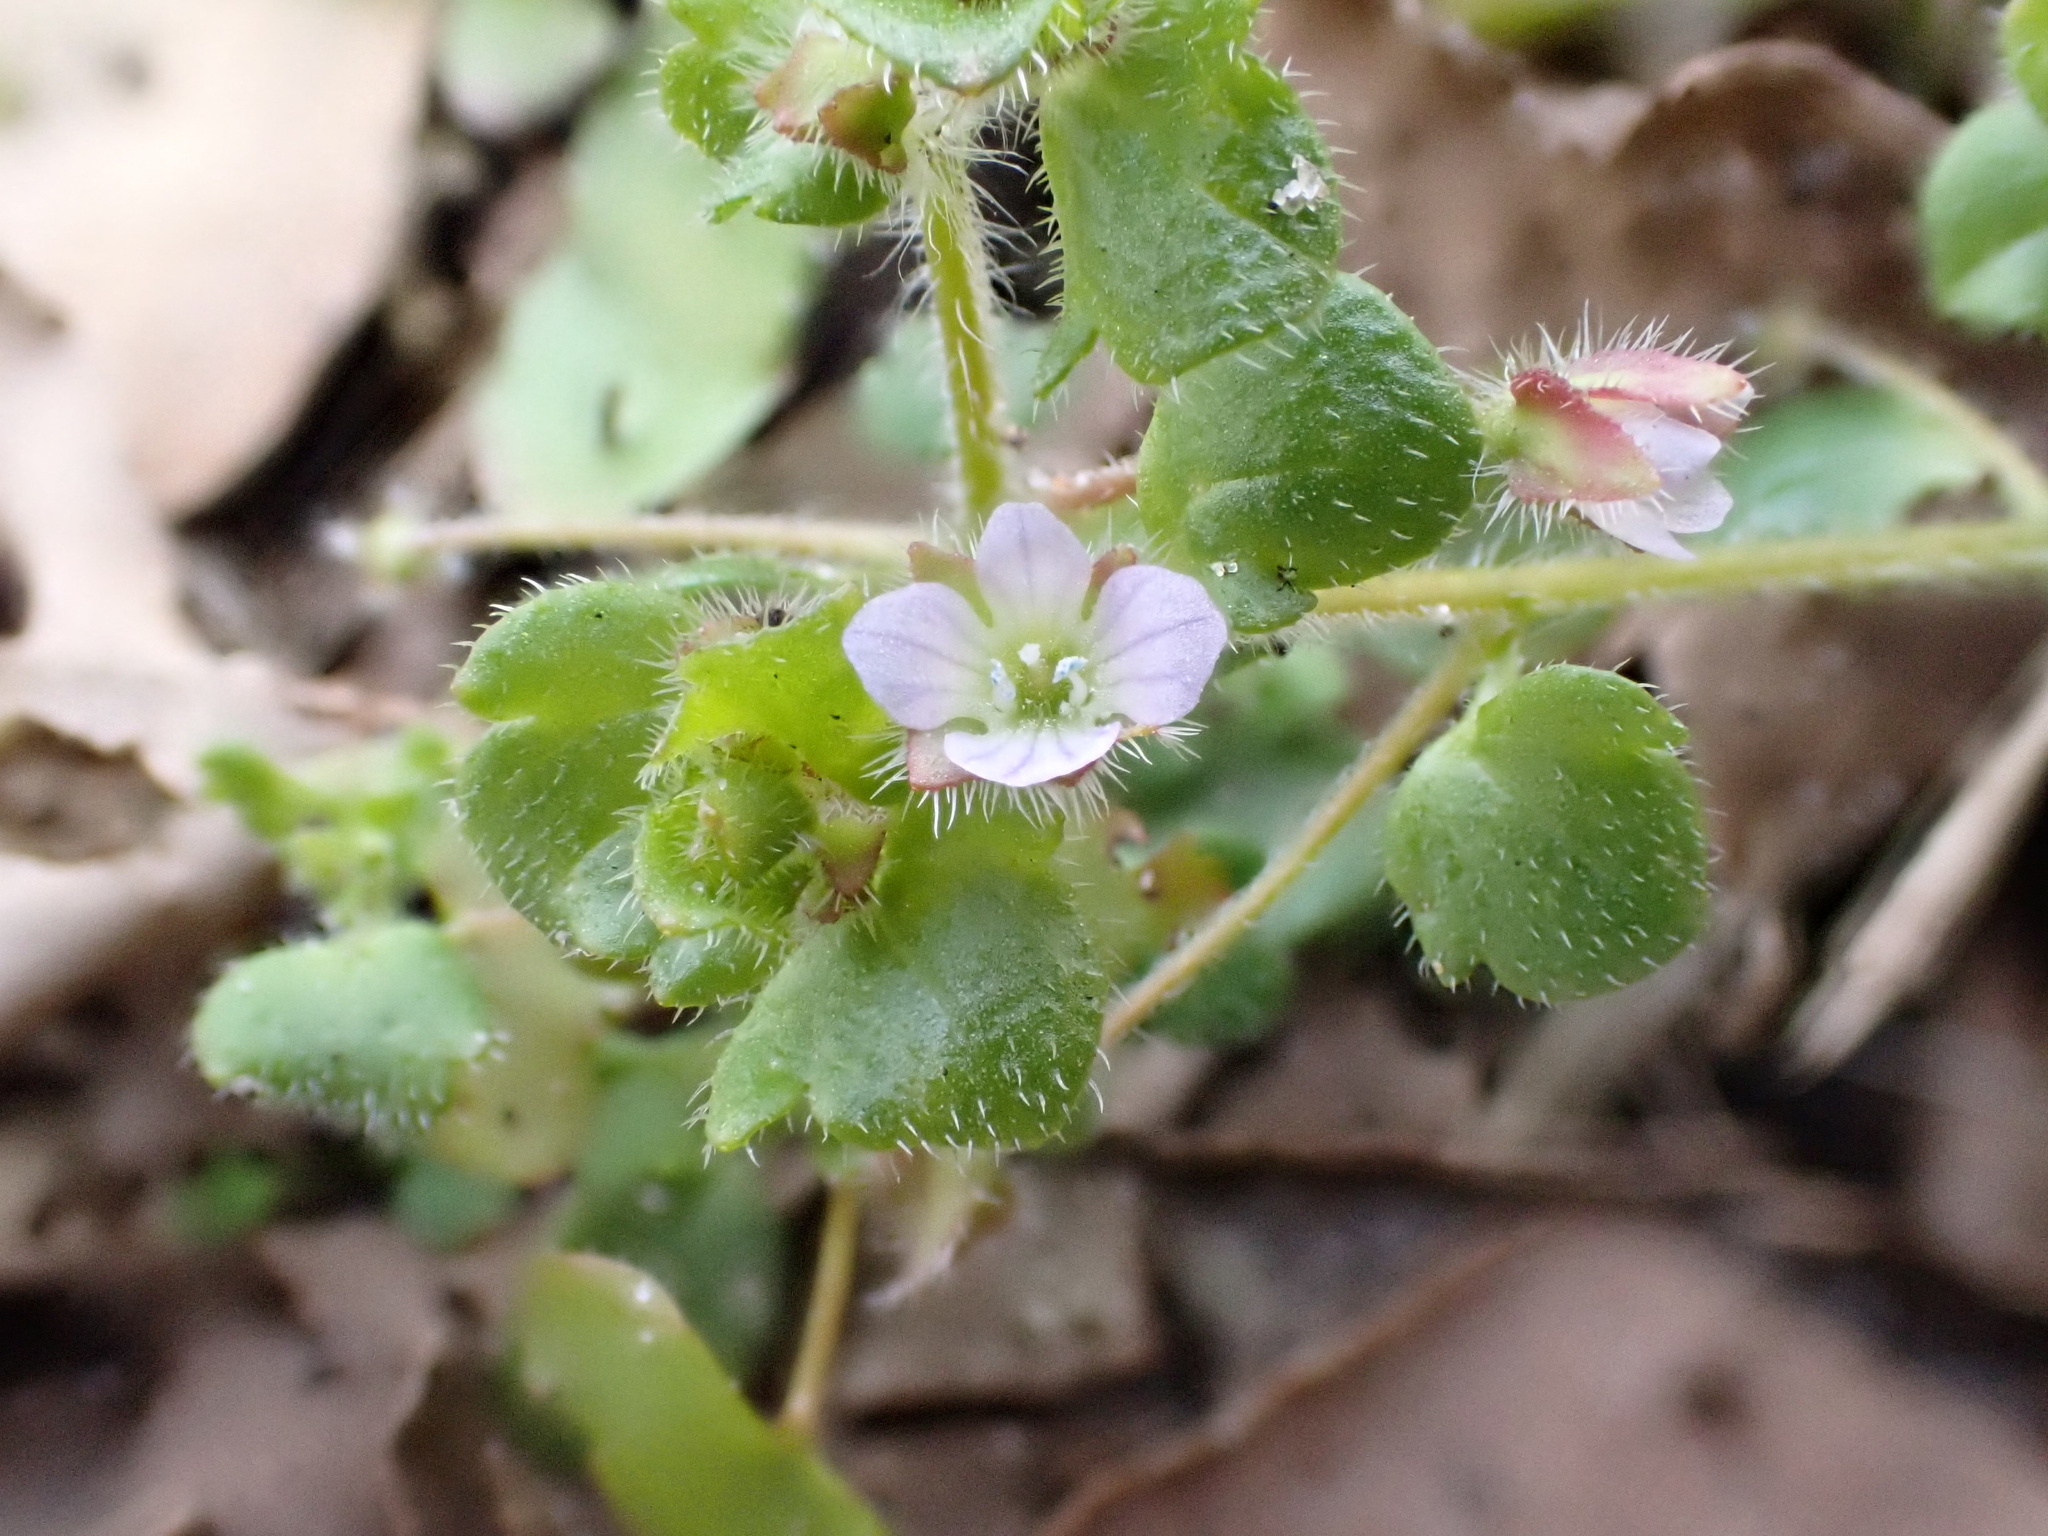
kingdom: Plantae
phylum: Tracheophyta
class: Magnoliopsida
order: Lamiales
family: Plantaginaceae
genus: Veronica
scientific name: Veronica sublobata
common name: False ivy-leaved speedwell
